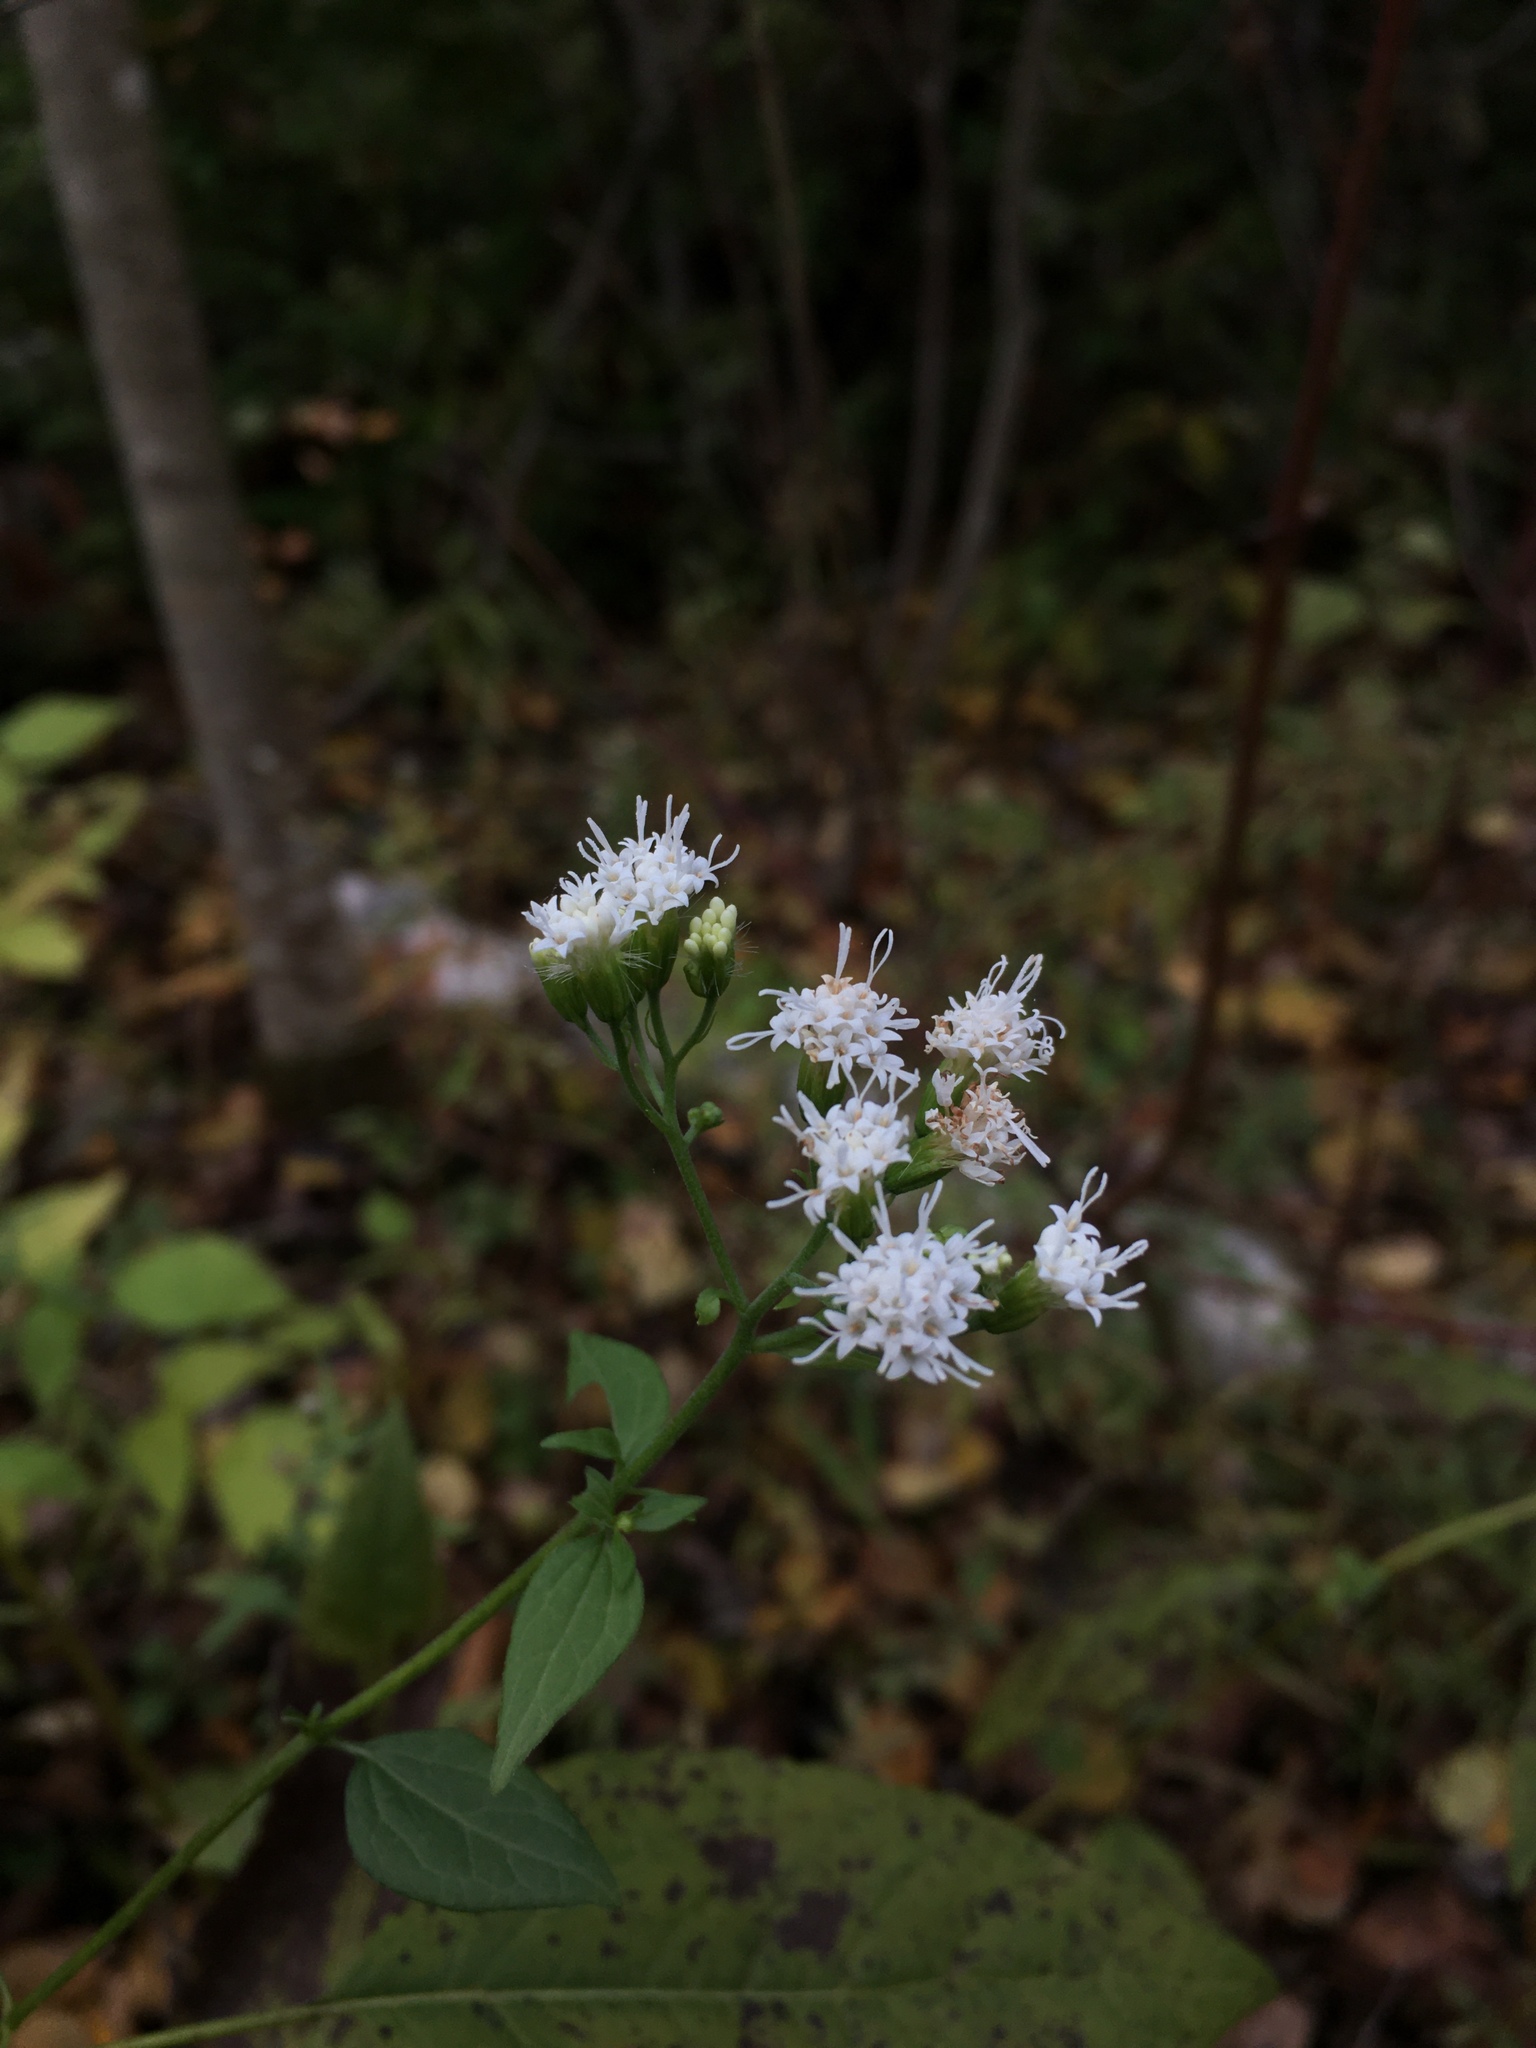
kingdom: Plantae
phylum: Tracheophyta
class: Magnoliopsida
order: Asterales
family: Asteraceae
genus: Ageratina
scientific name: Ageratina altissima
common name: White snakeroot
